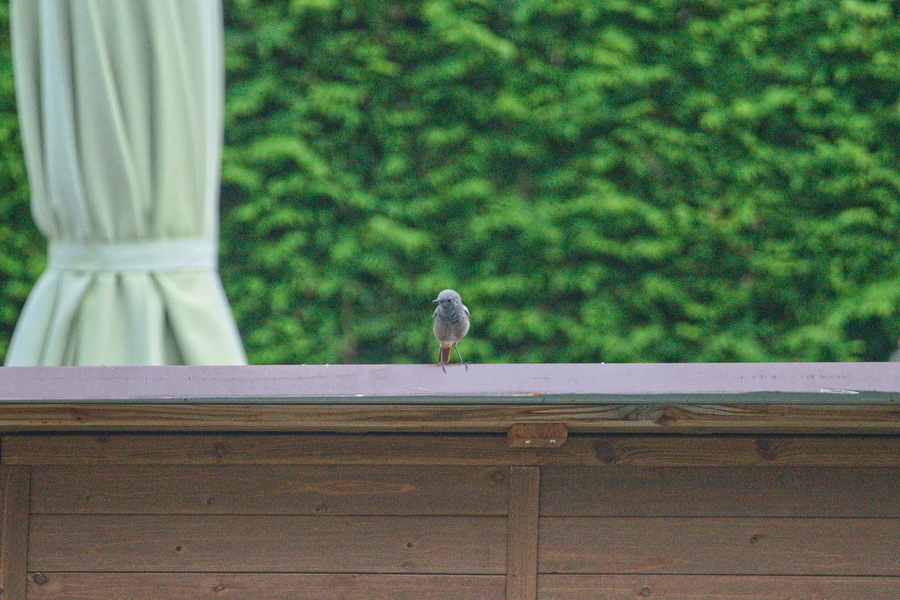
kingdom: Animalia
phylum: Chordata
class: Aves
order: Passeriformes
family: Muscicapidae
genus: Phoenicurus
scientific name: Phoenicurus ochruros
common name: Black redstart
